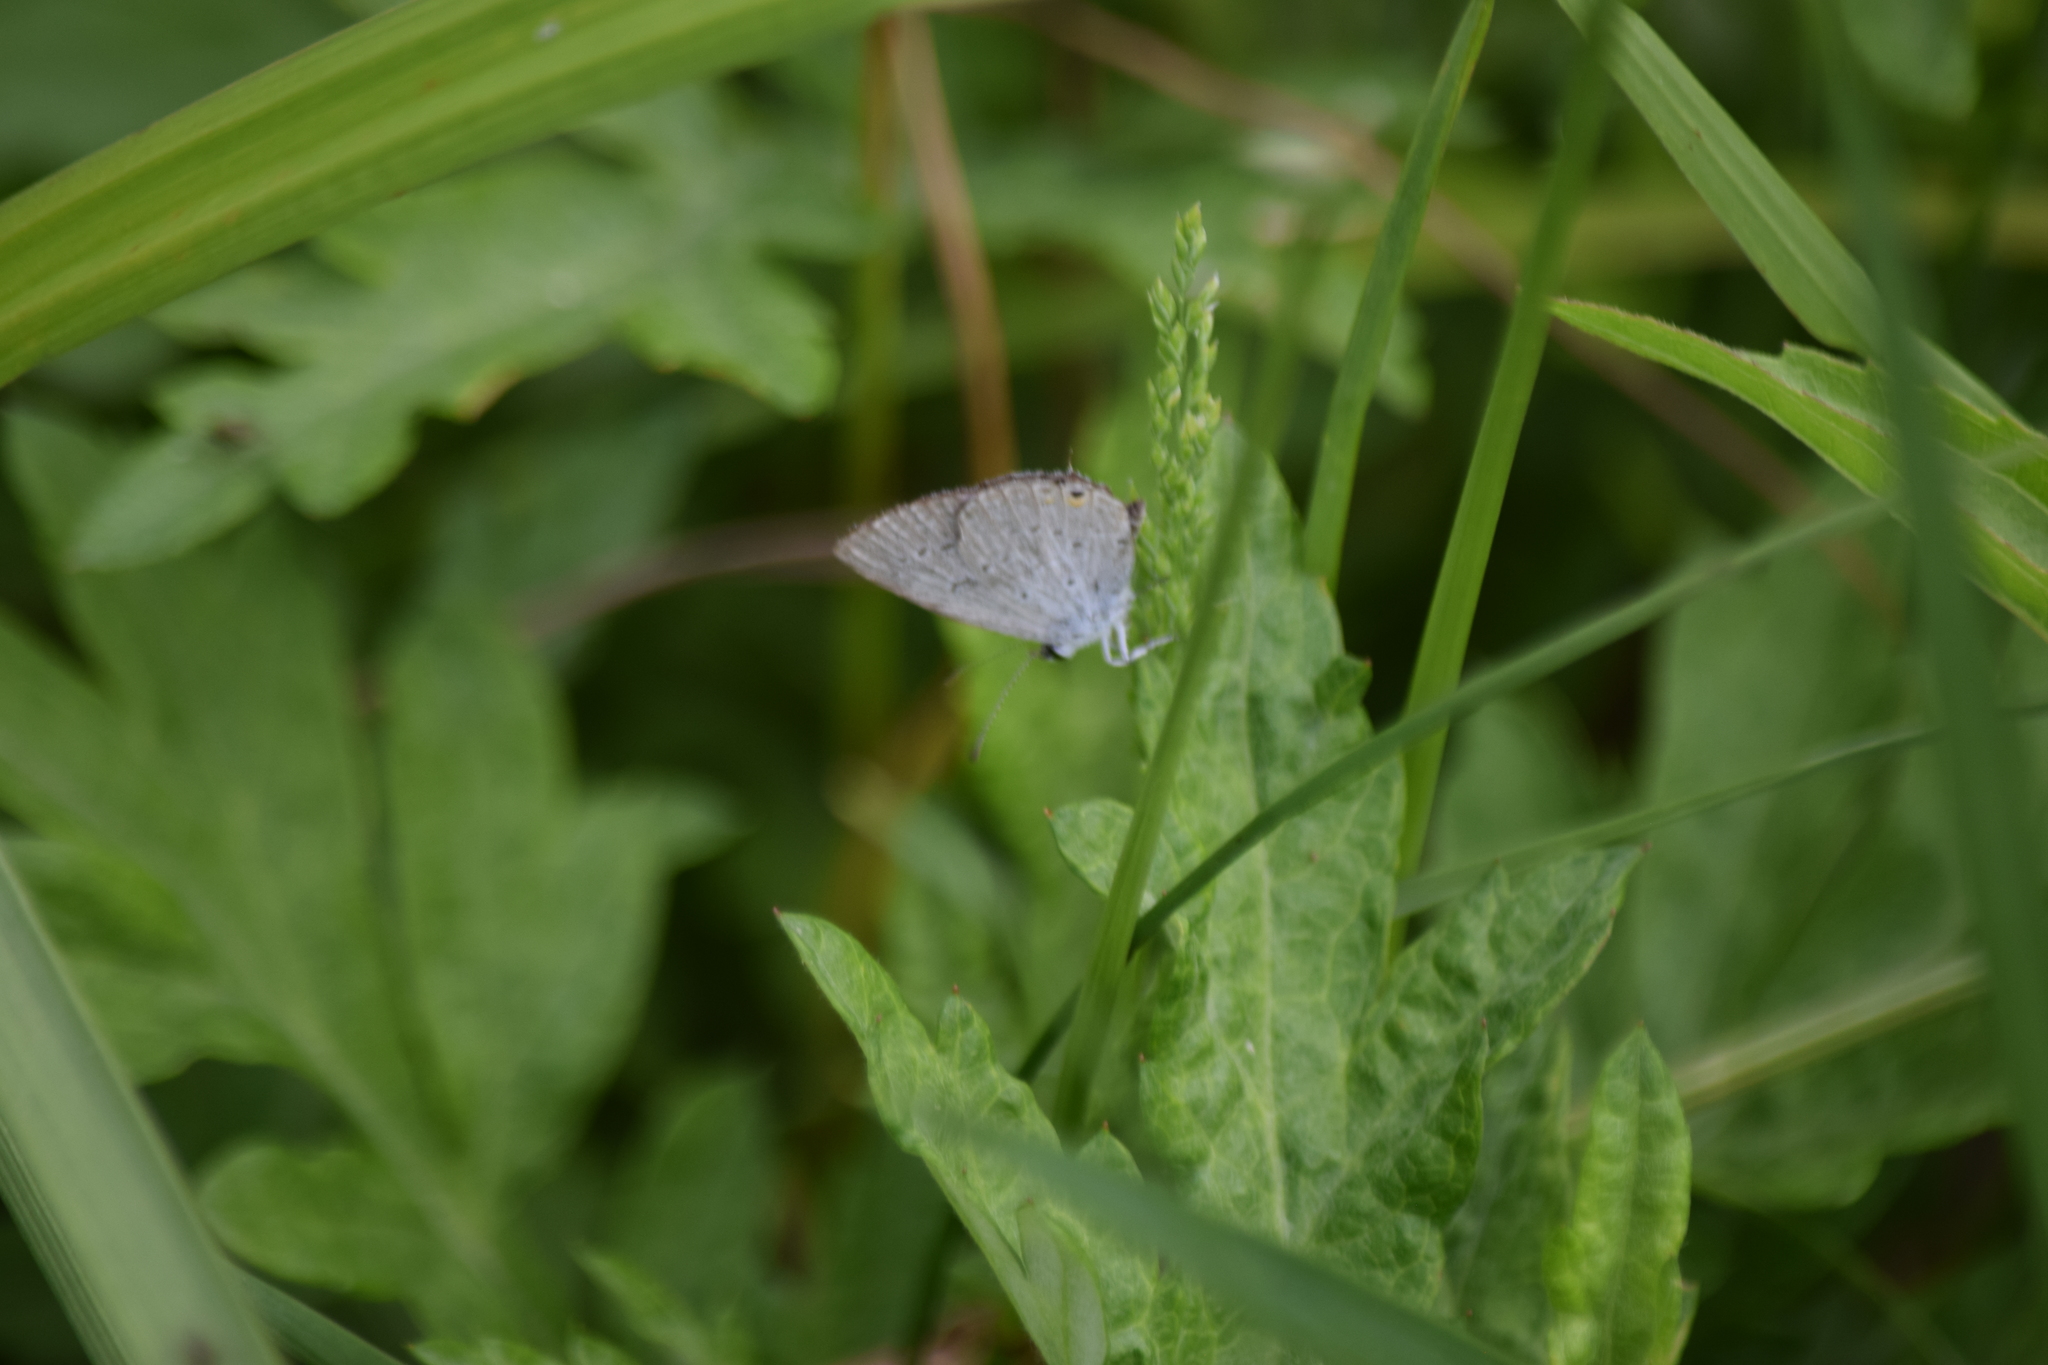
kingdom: Animalia
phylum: Arthropoda
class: Insecta
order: Lepidoptera
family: Lycaenidae
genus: Elkalyce
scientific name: Elkalyce comyntas
